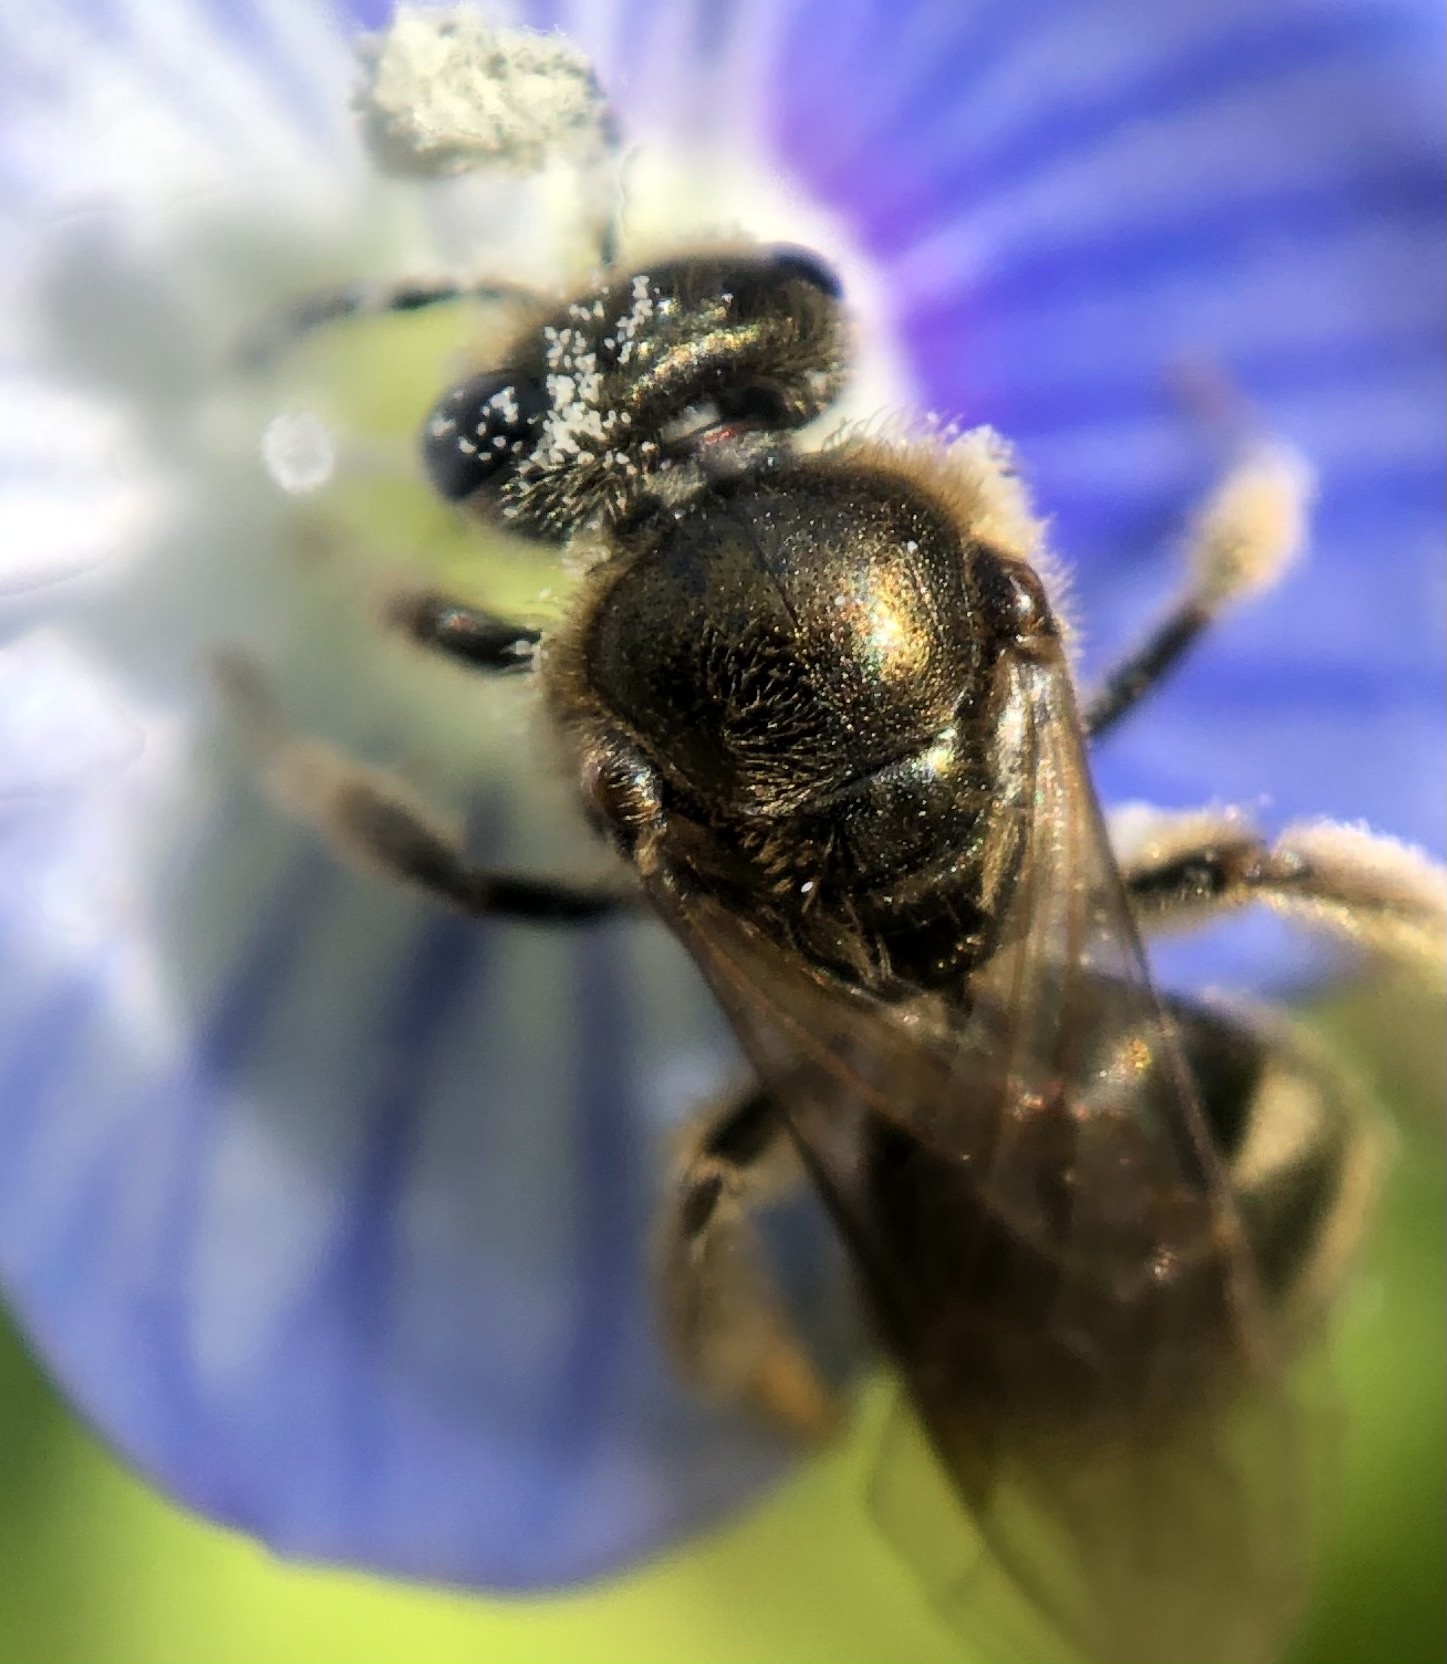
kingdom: Animalia
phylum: Arthropoda
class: Insecta
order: Hymenoptera
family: Halictidae
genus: Dialictus
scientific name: Dialictus
